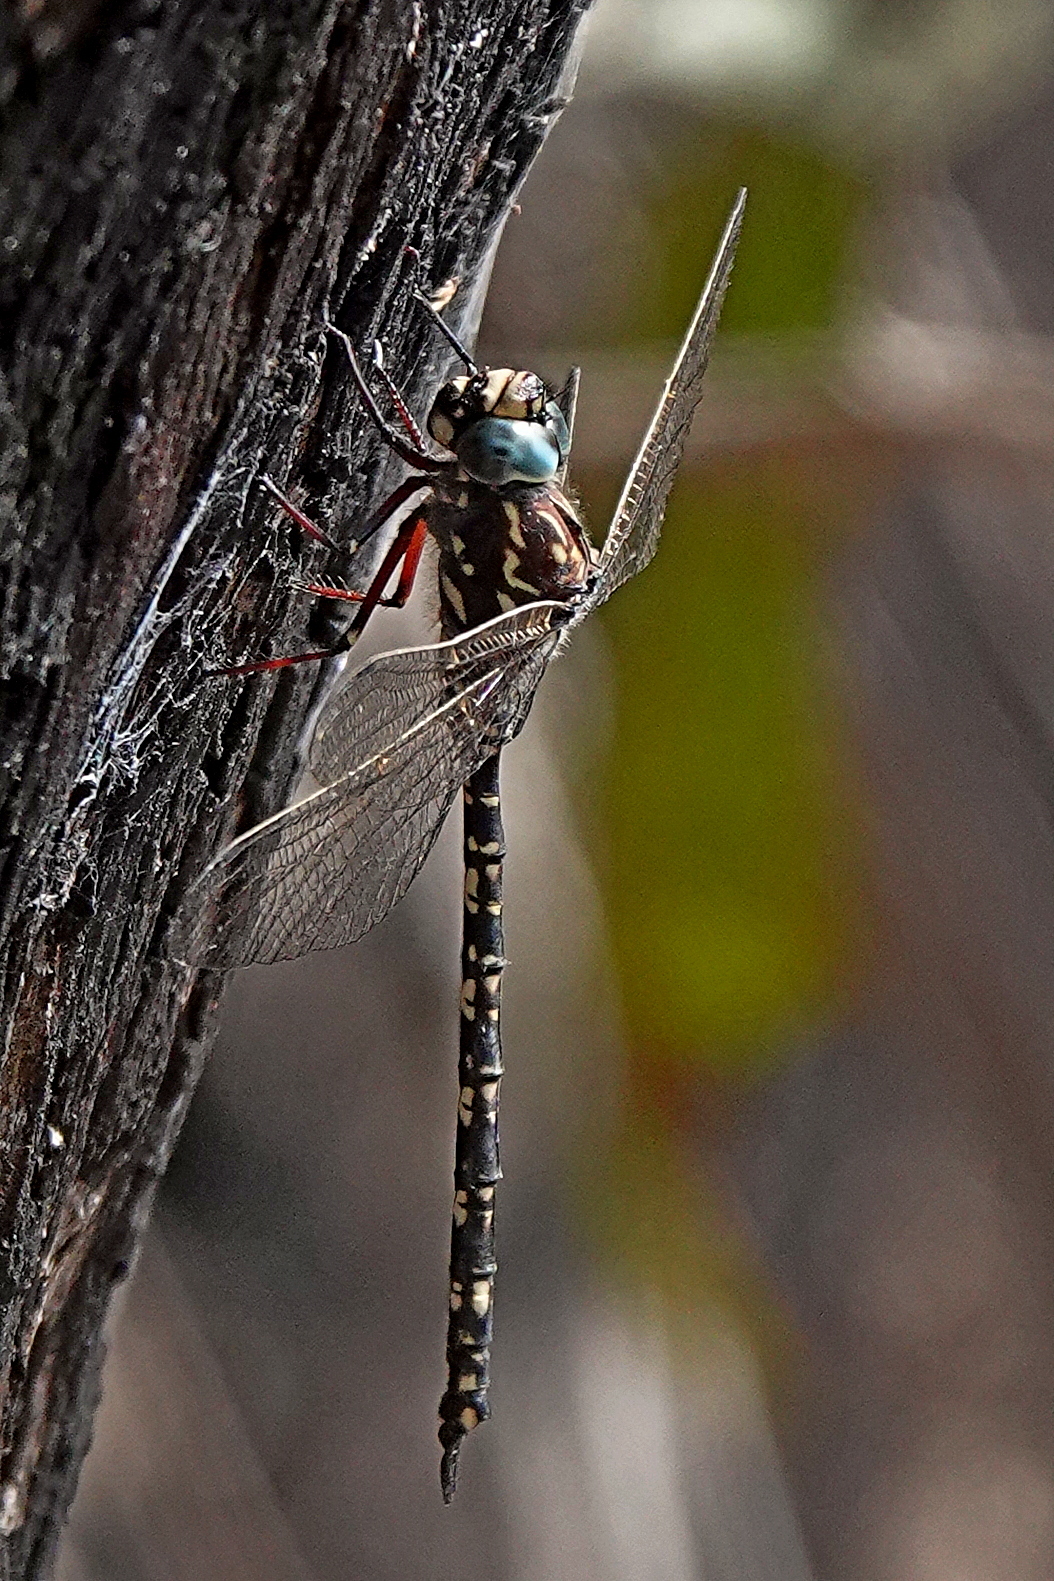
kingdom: Animalia
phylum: Arthropoda
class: Insecta
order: Odonata
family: Aeshnidae
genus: Austroaeschna
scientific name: Austroaeschna parvistigma
